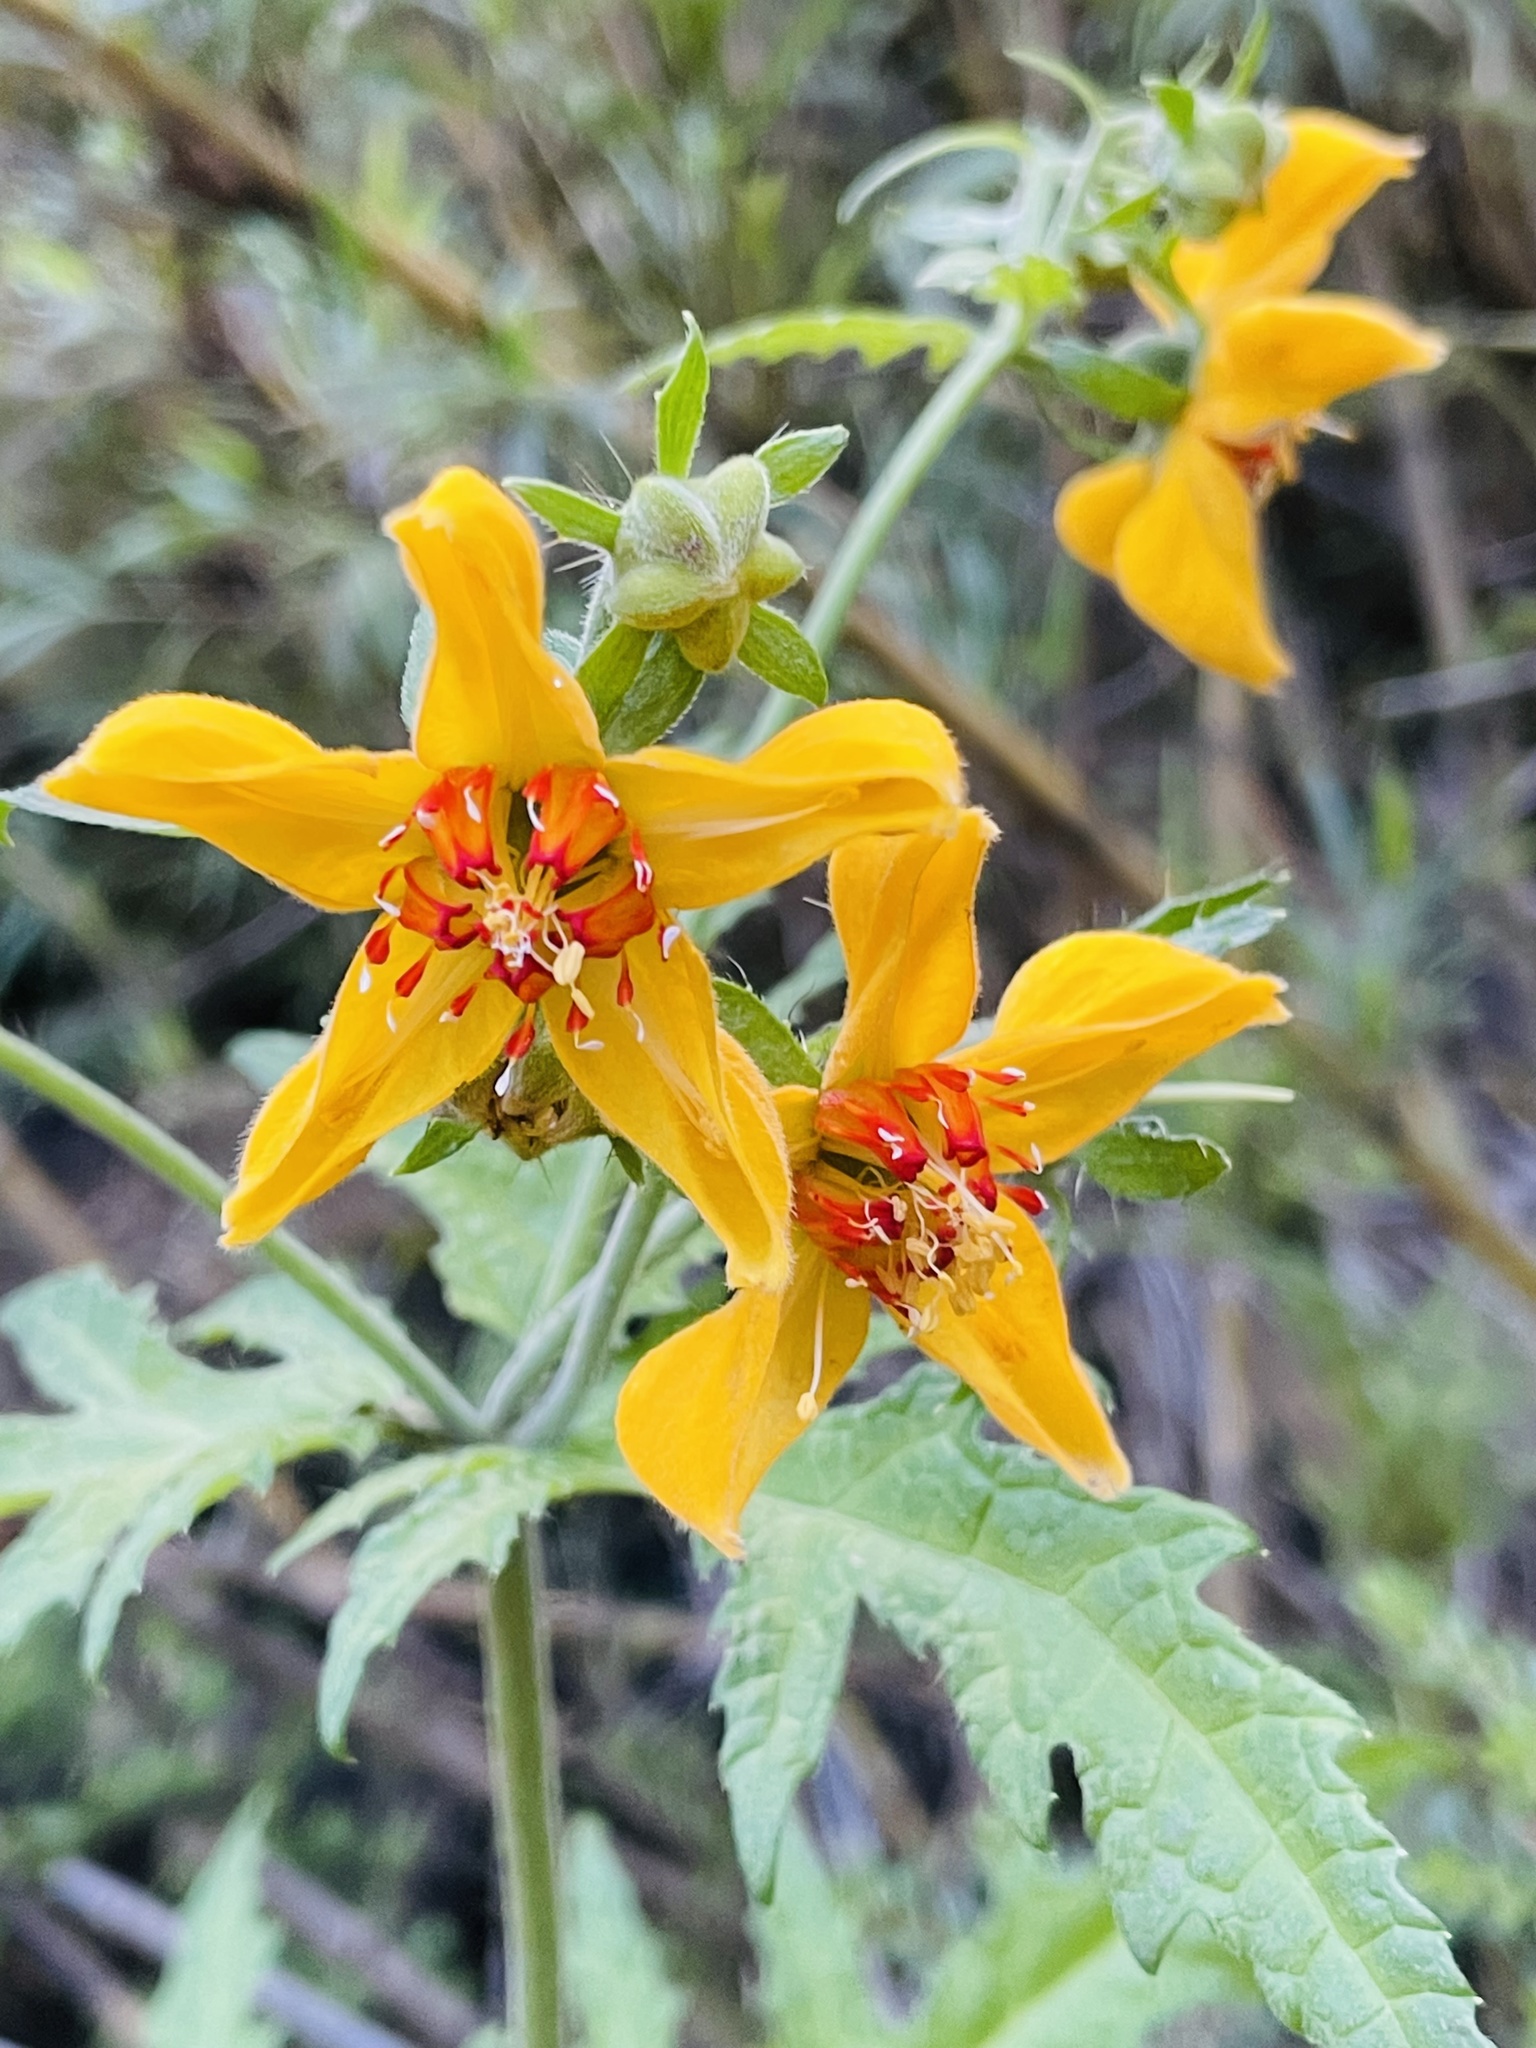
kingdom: Plantae
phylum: Tracheophyta
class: Magnoliopsida
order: Cornales
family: Loasaceae
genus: Loasa
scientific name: Loasa acanthifolia
